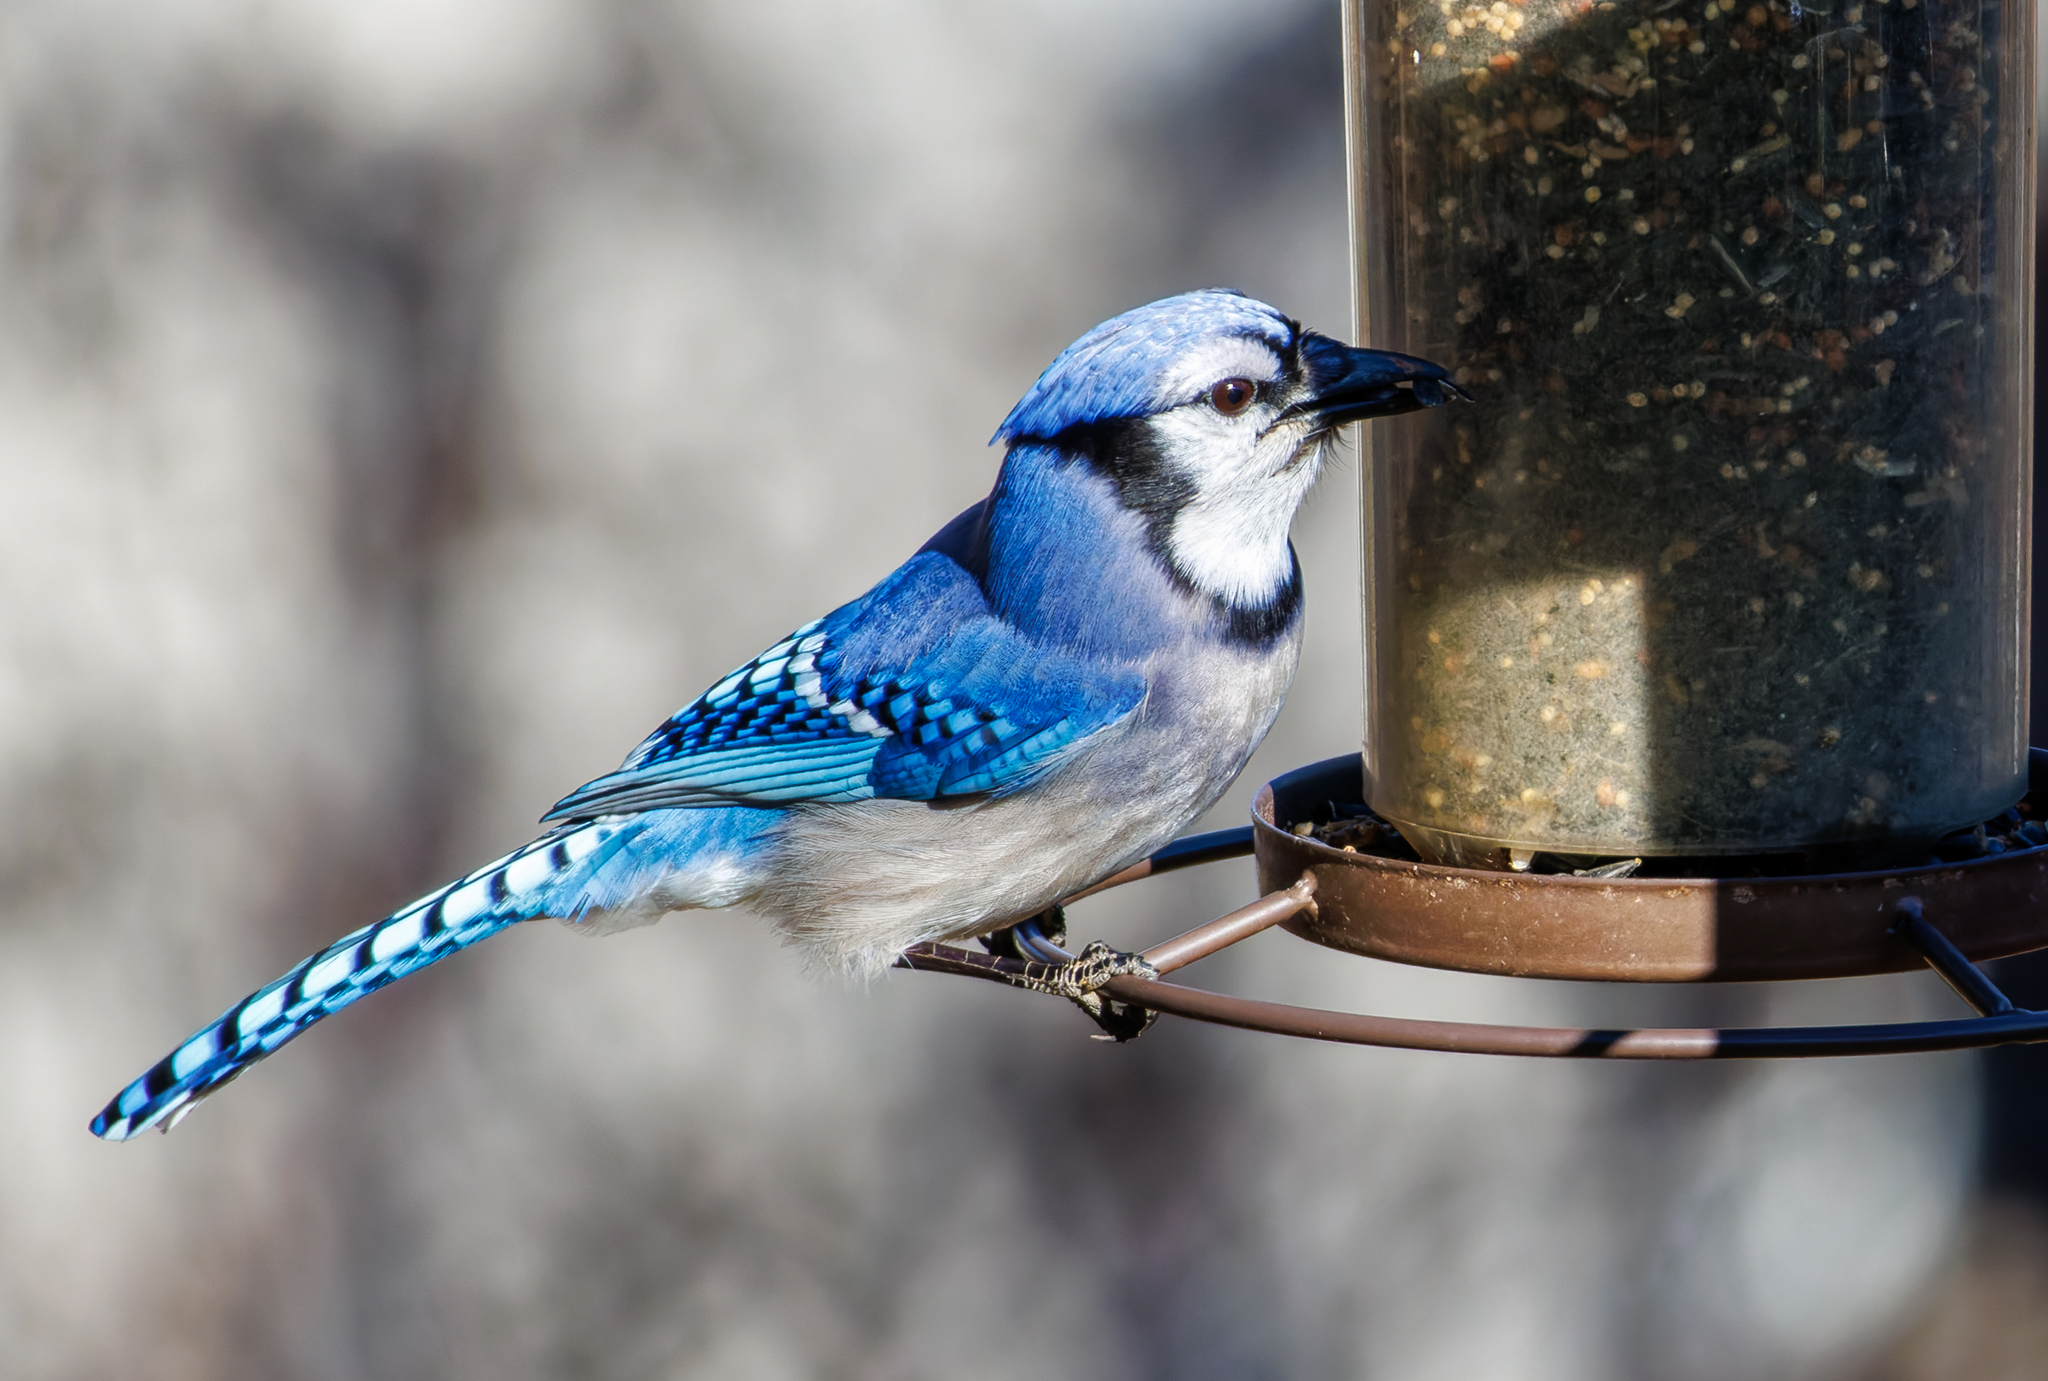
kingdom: Animalia
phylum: Chordata
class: Aves
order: Passeriformes
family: Corvidae
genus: Cyanocitta
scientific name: Cyanocitta cristata
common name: Blue jay
